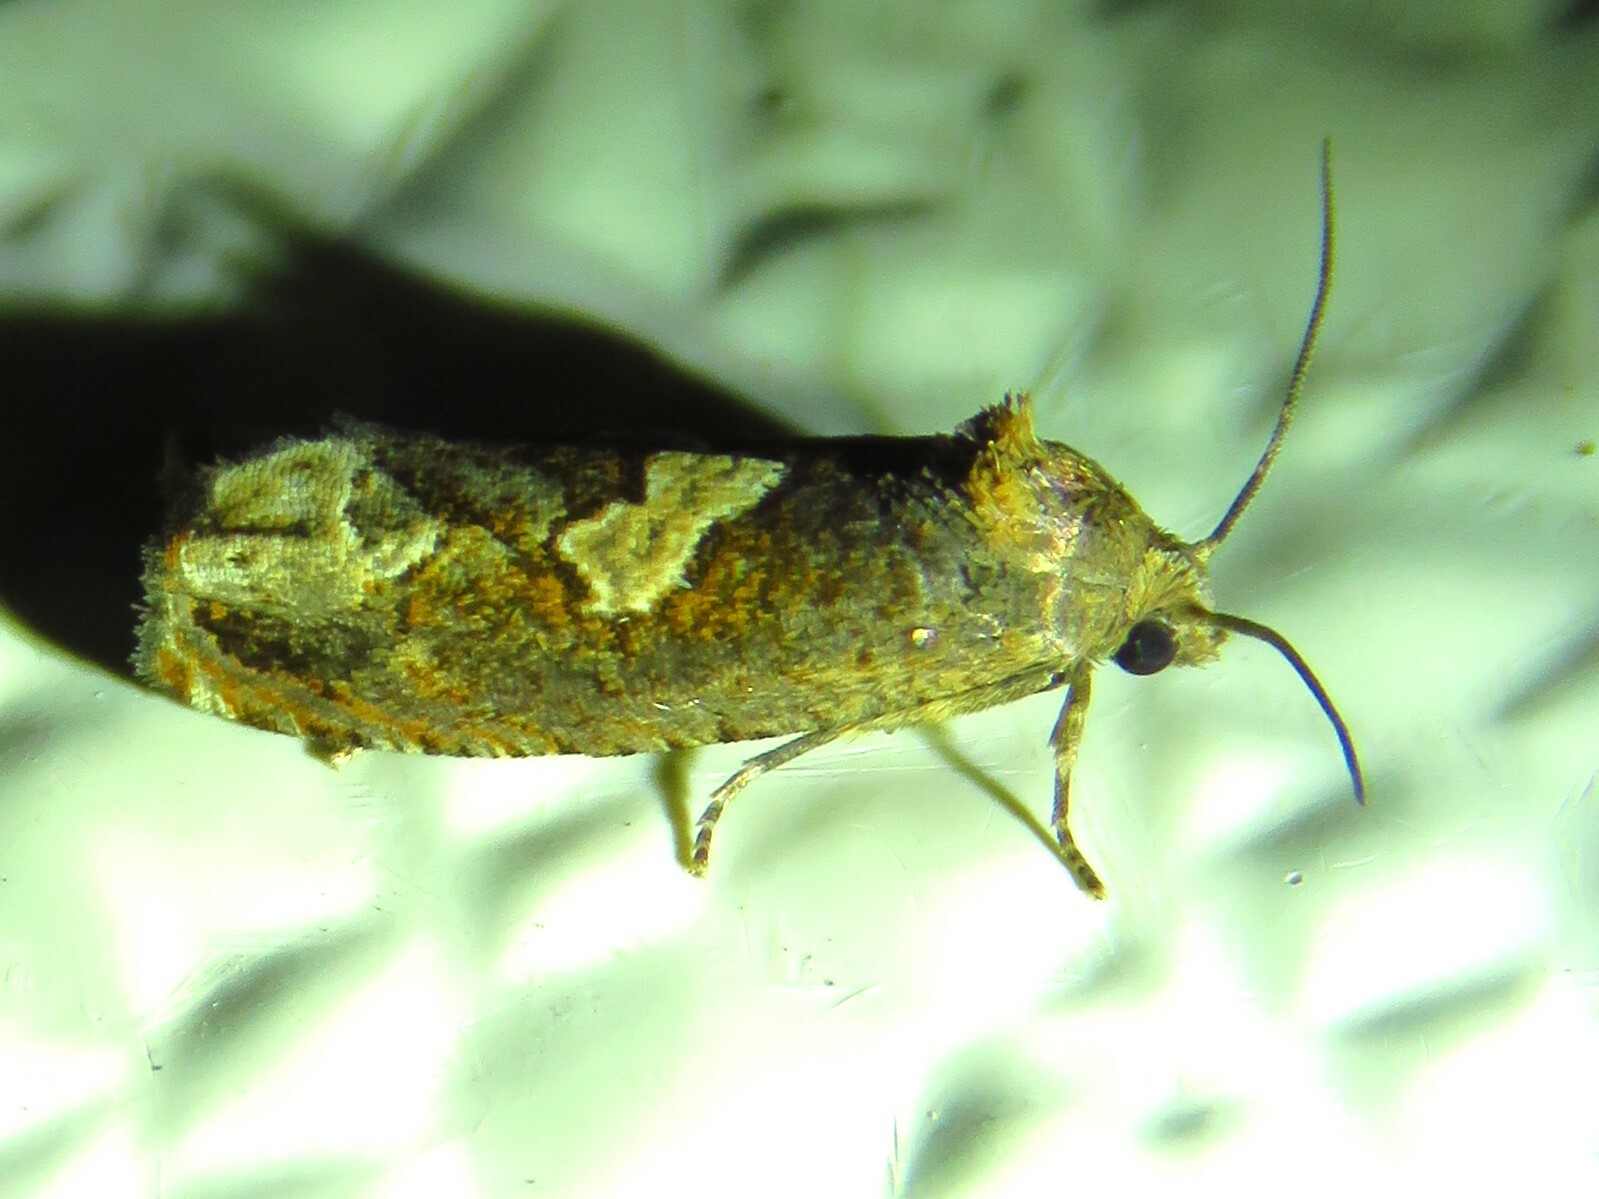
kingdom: Animalia
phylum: Arthropoda
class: Insecta
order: Lepidoptera
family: Tortricidae
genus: Epiblema
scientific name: Epiblema otiosana
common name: Bidens borer moth
